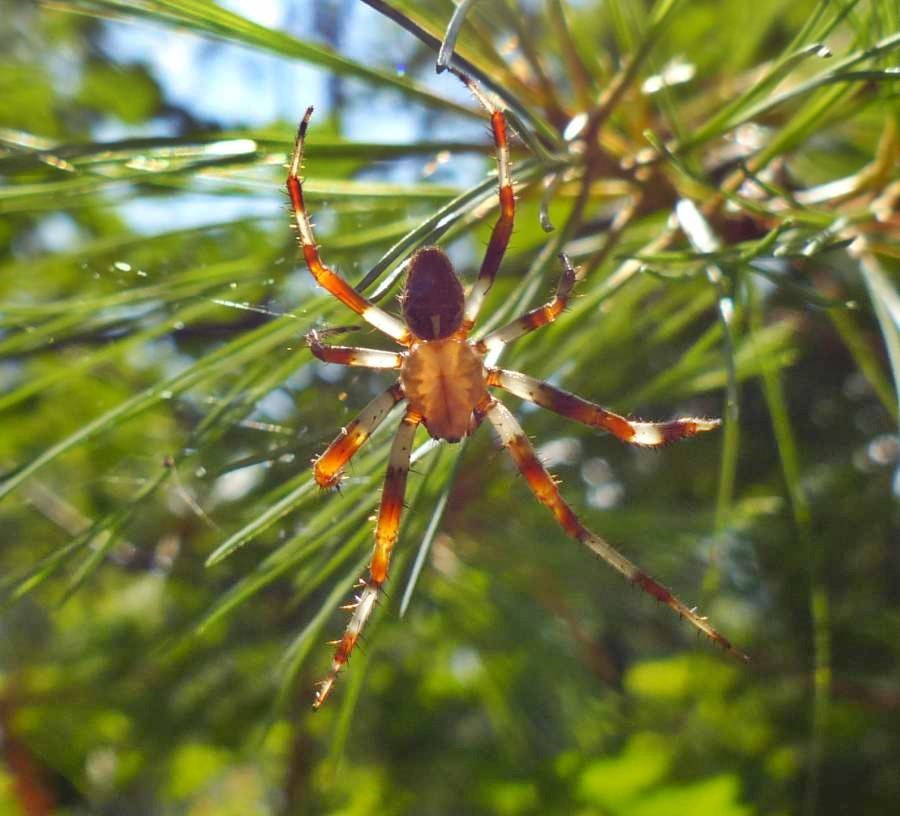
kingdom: Animalia
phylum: Arthropoda
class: Arachnida
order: Araneae
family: Araneidae
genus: Araneus
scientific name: Araneus marmoreus
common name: Marbled orbweaver
